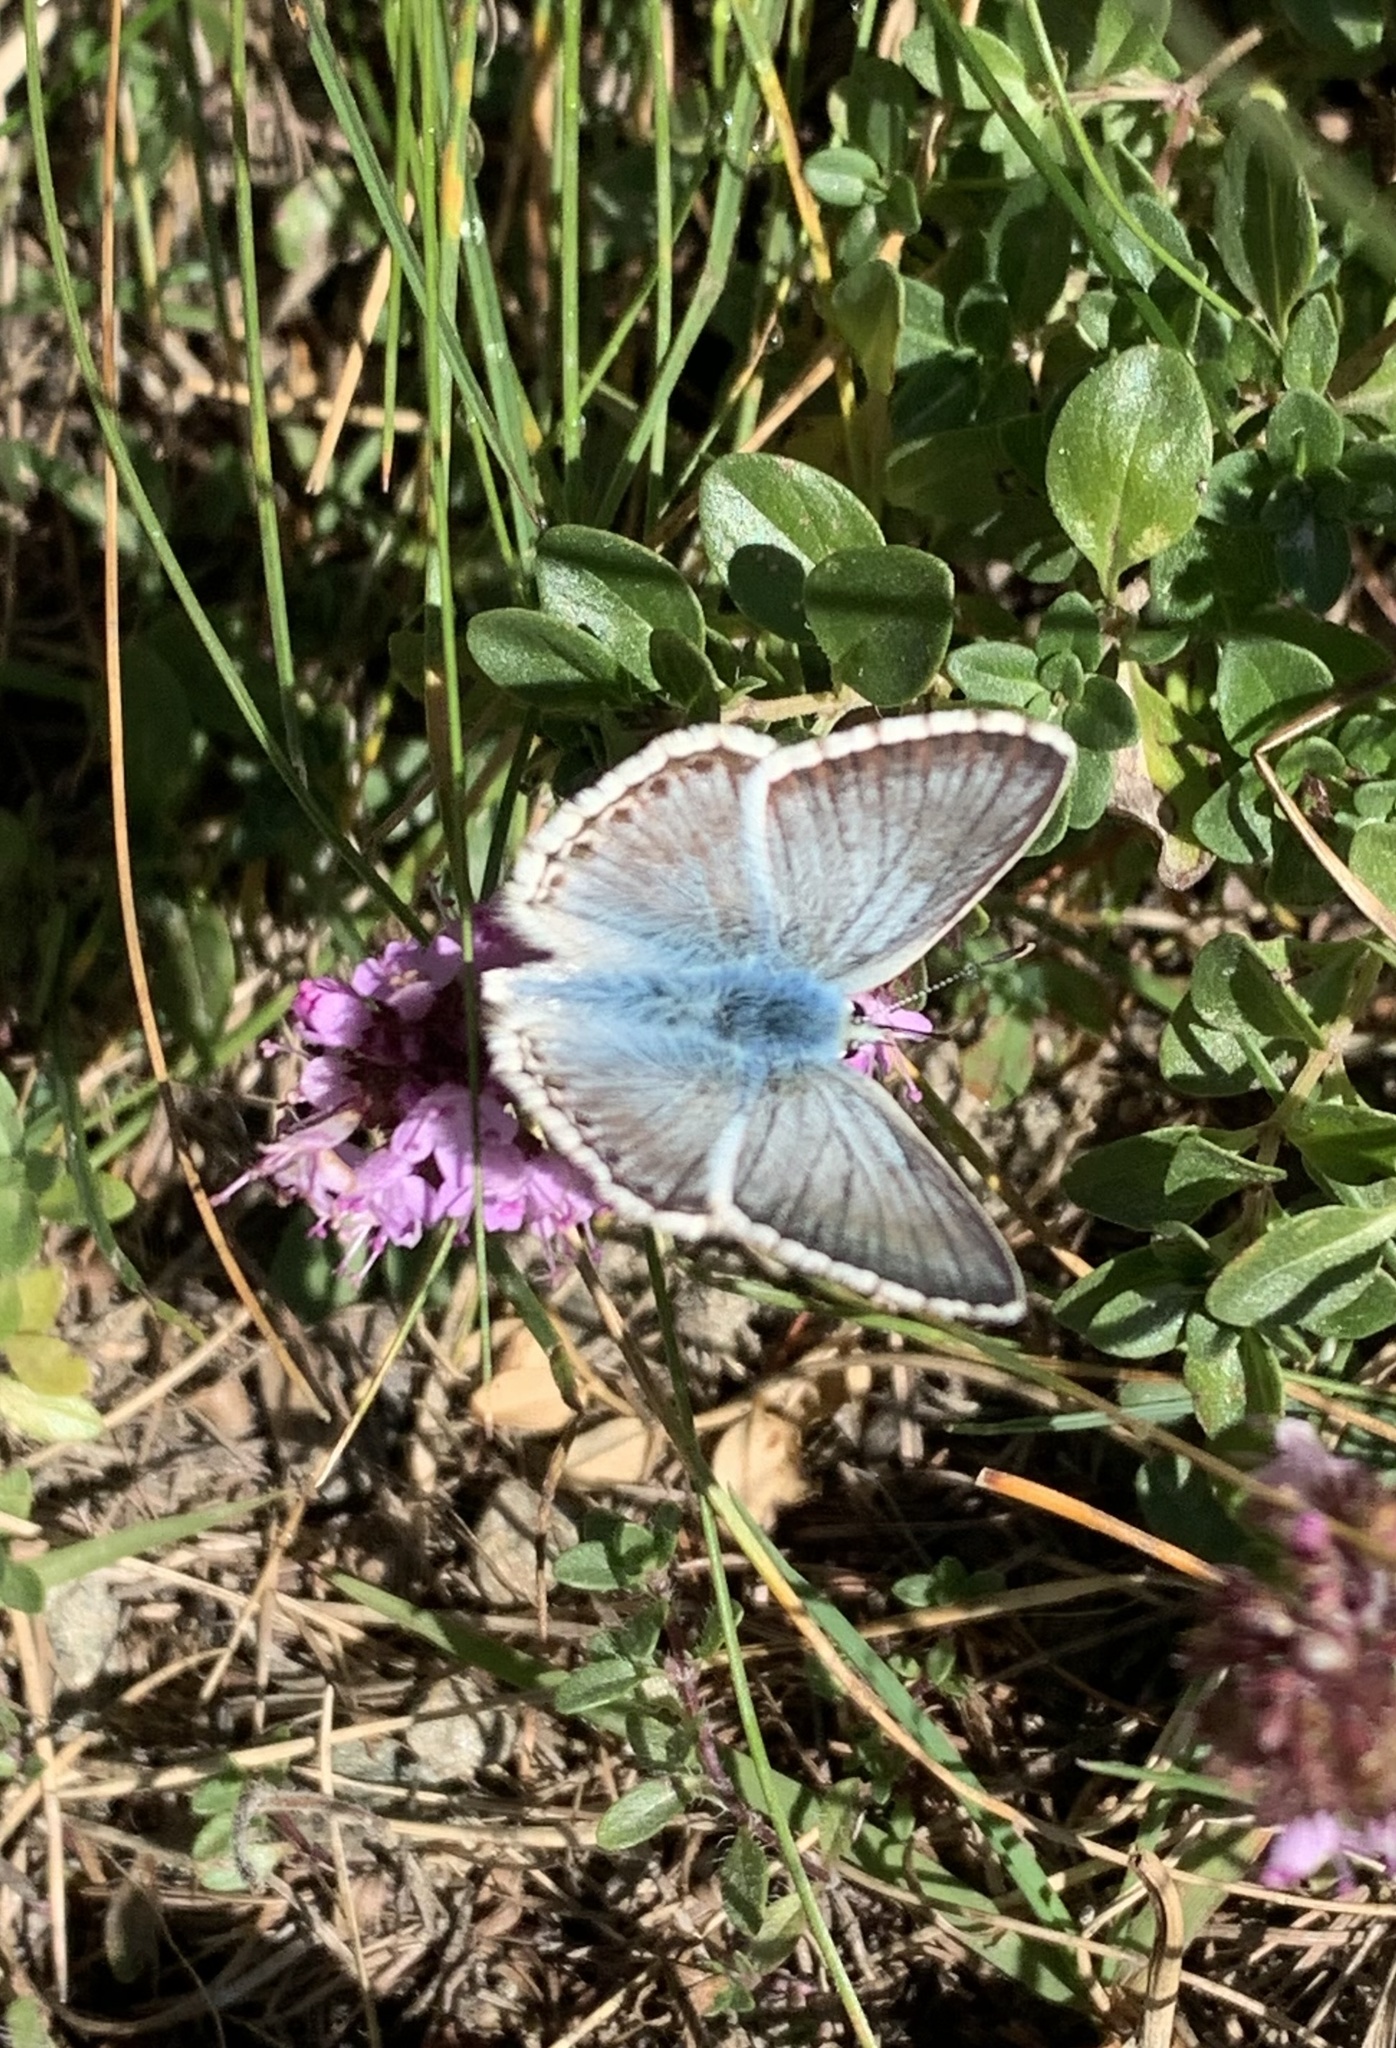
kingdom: Animalia
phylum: Arthropoda
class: Insecta
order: Lepidoptera
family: Lycaenidae
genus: Lysandra
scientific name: Lysandra coridon
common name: Chalkhill blue
